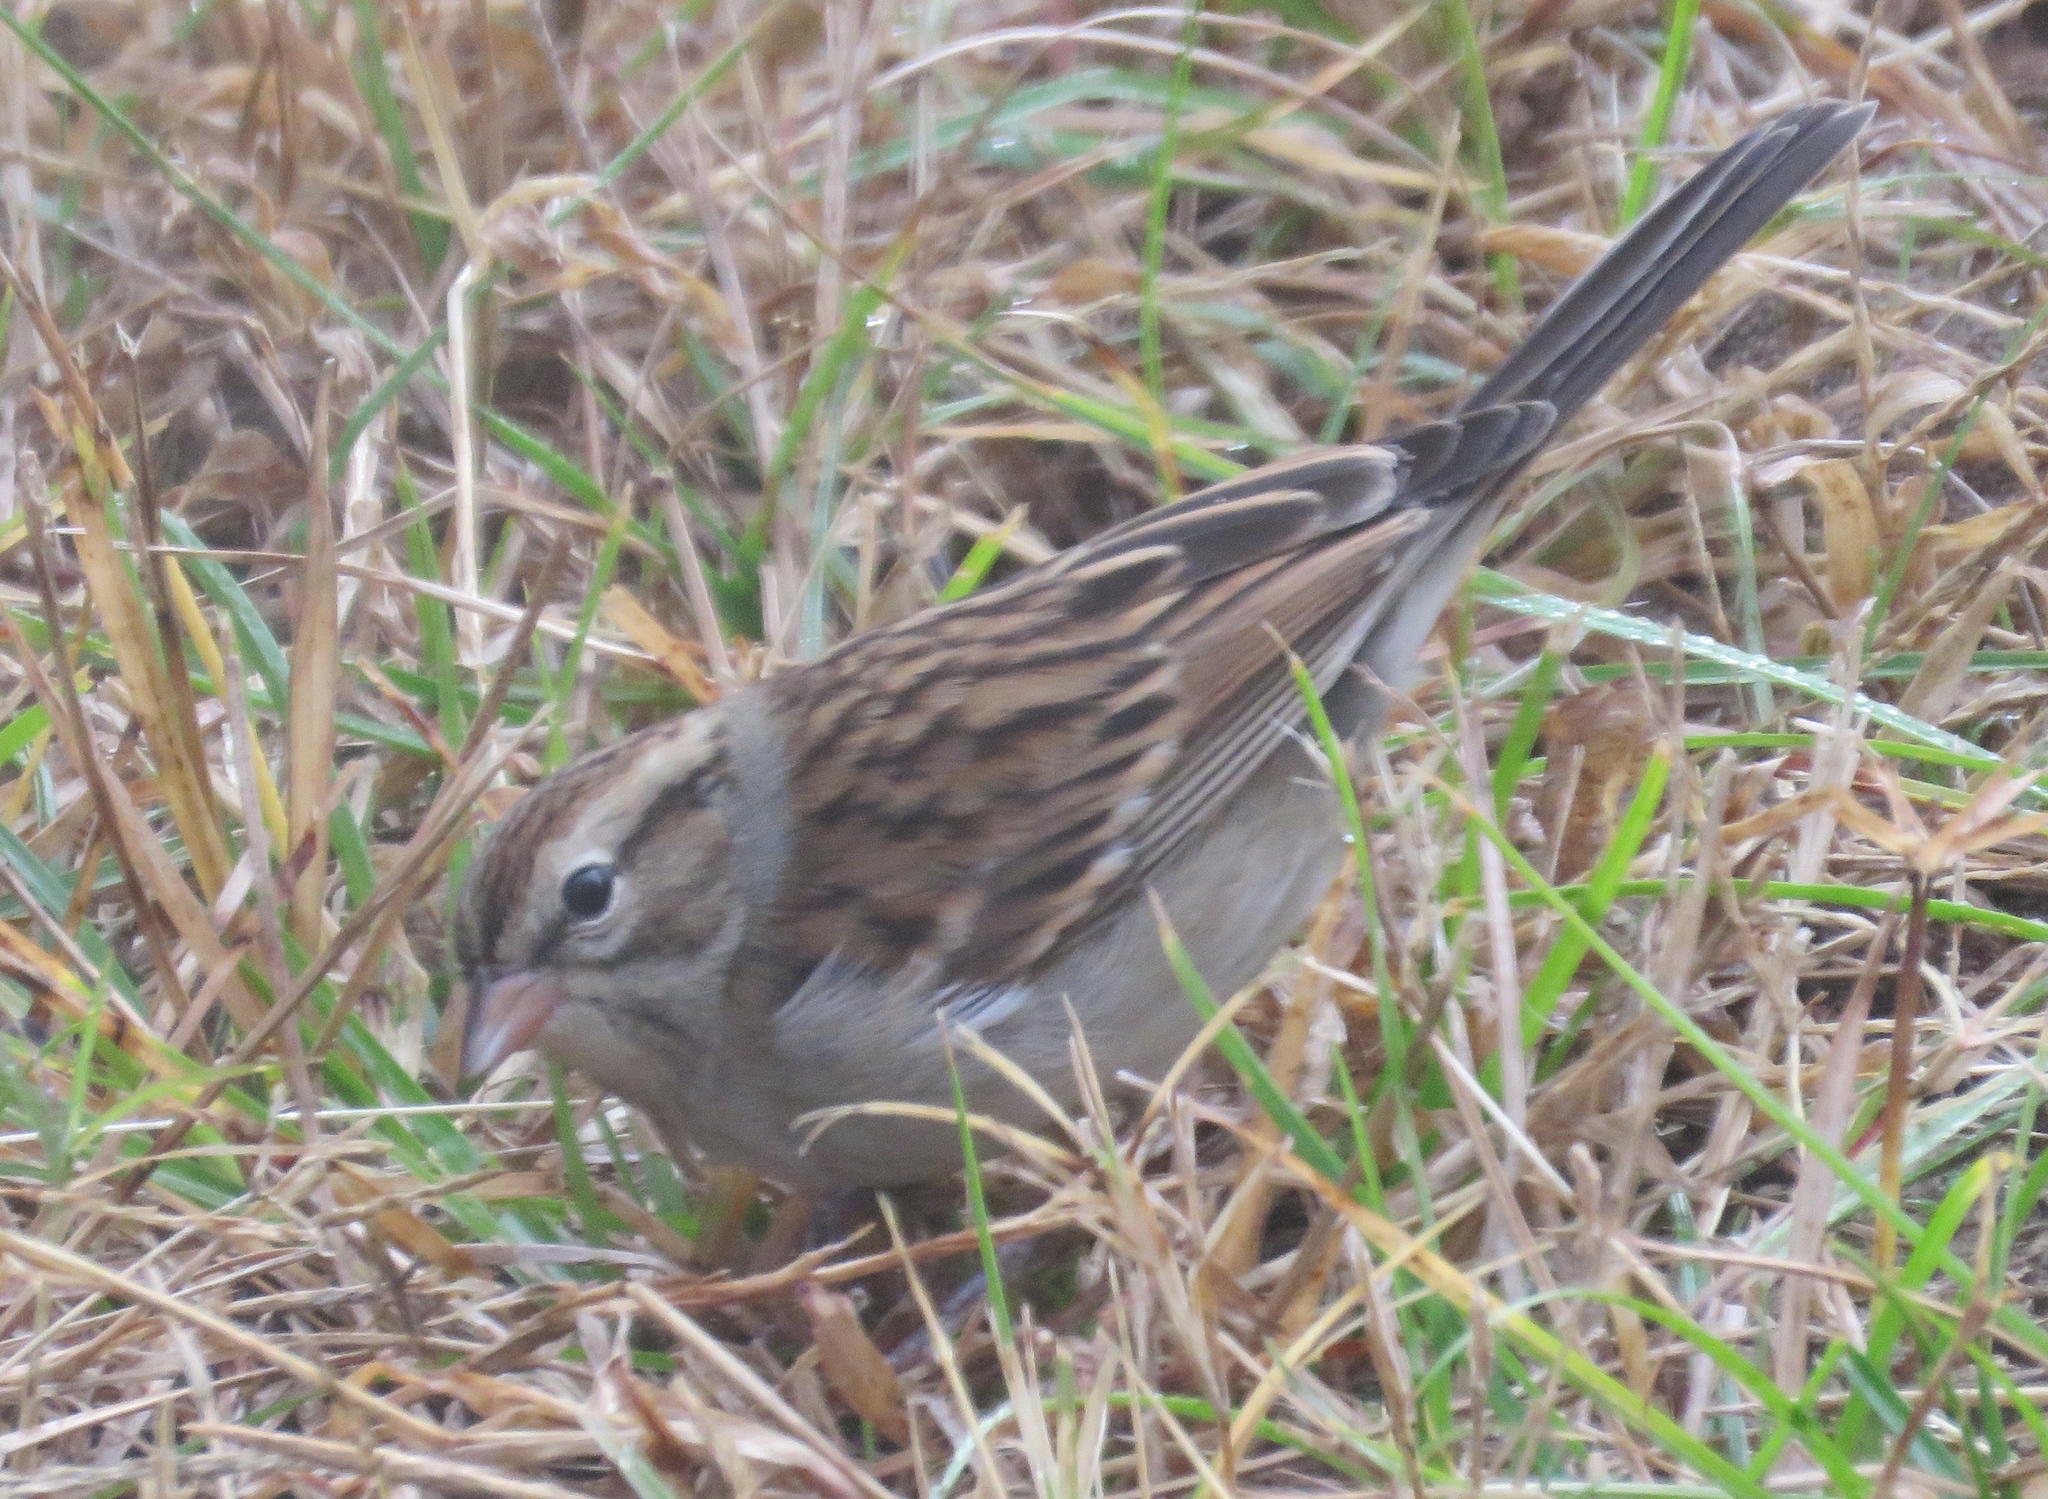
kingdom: Animalia
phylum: Chordata
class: Aves
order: Passeriformes
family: Passerellidae
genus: Spizella
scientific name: Spizella passerina
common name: Chipping sparrow
